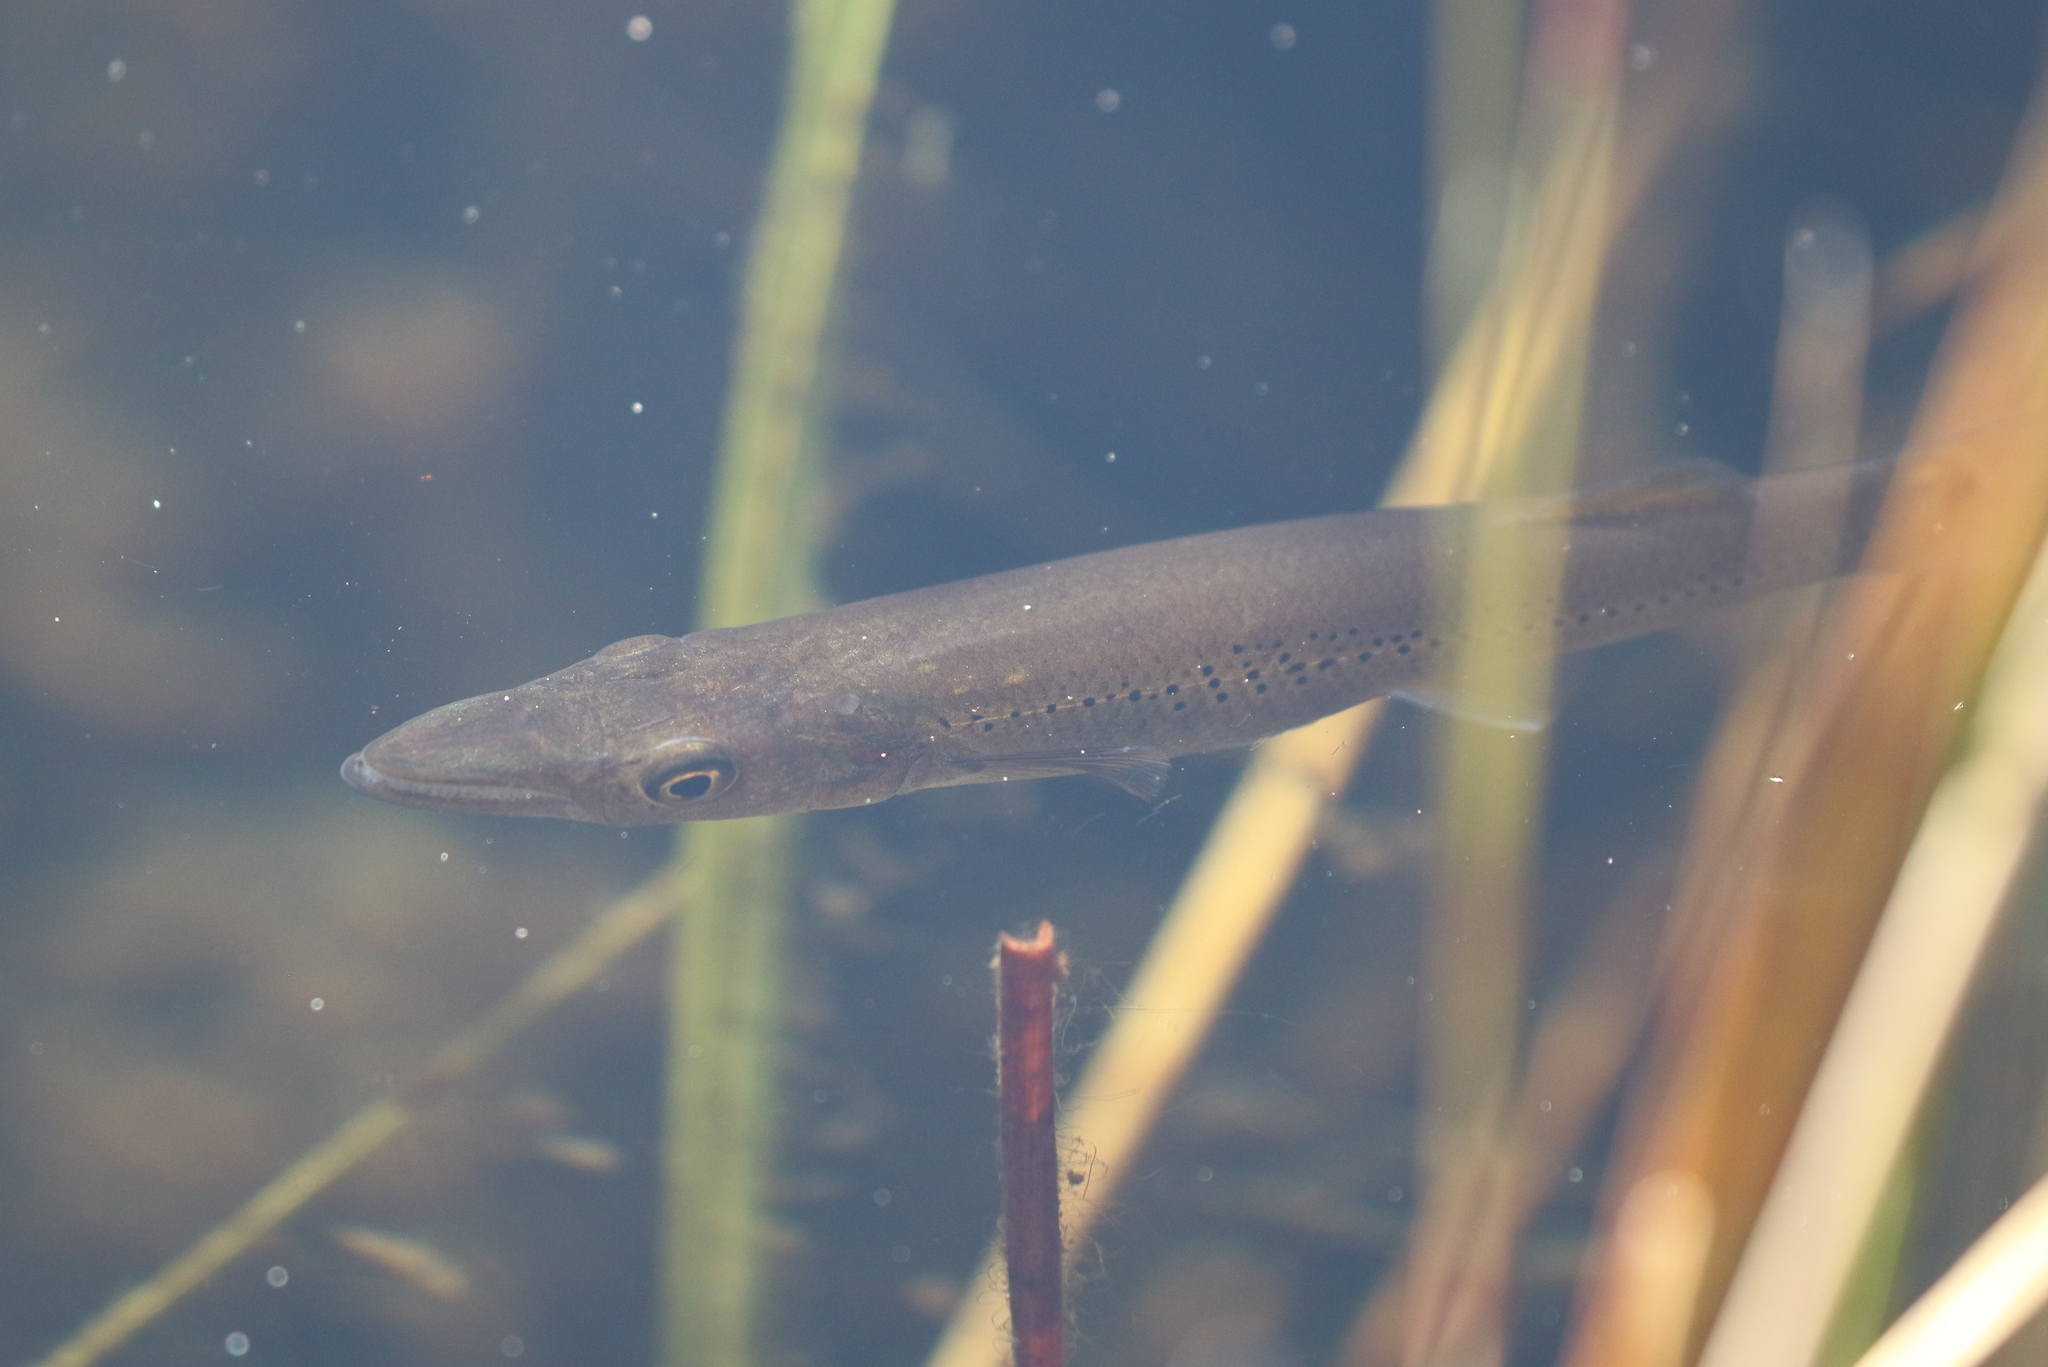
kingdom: Animalia
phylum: Chordata
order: Cyprinodontiformes
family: Poeciliidae
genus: Belonesox
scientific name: Belonesox belizanus
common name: Pike killifish
